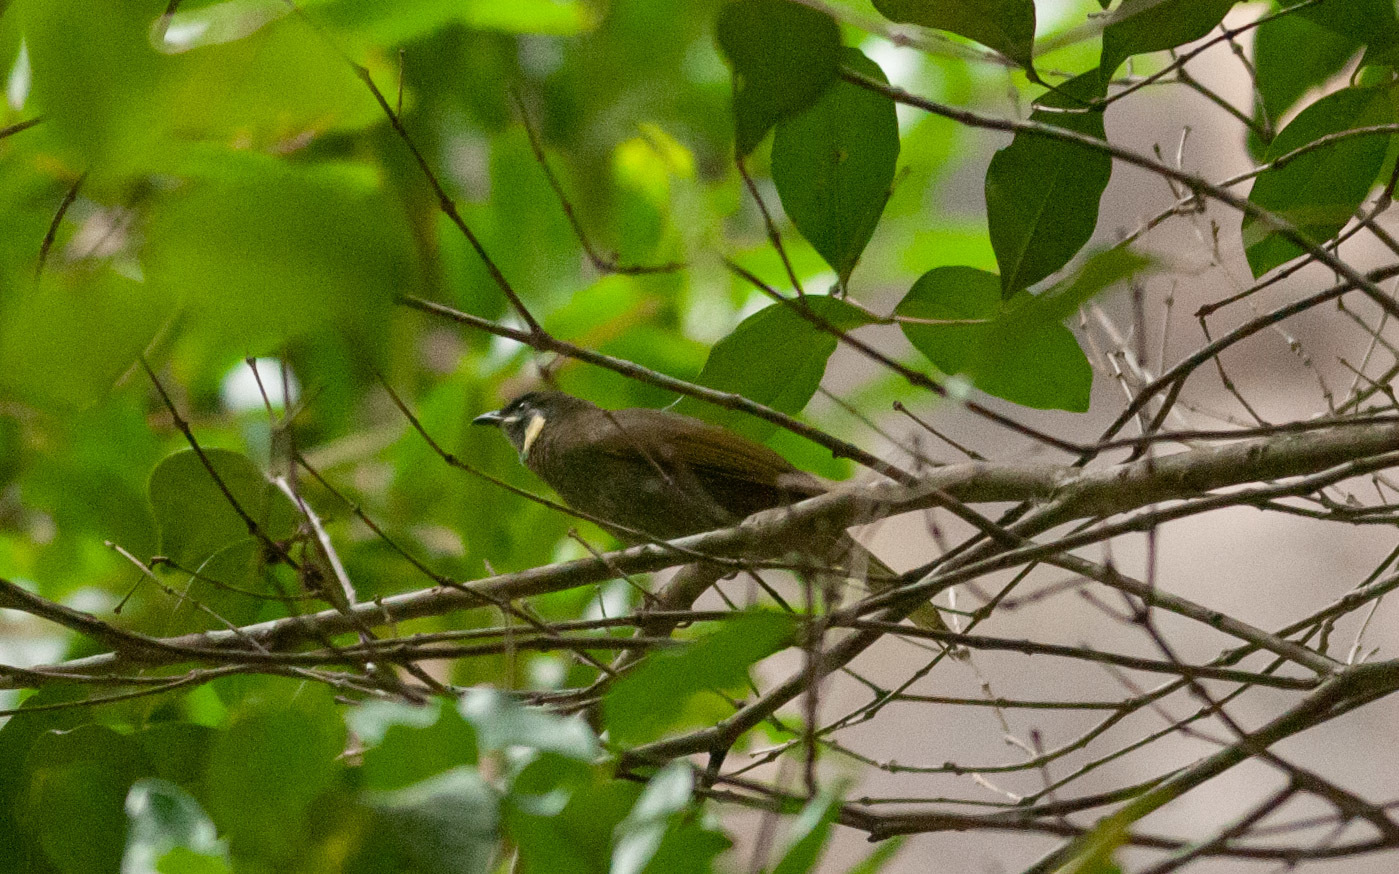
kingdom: Animalia
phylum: Chordata
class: Aves
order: Passeriformes
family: Meliphagidae
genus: Meliphaga
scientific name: Meliphaga lewinii
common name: Lewin's honeyeater
